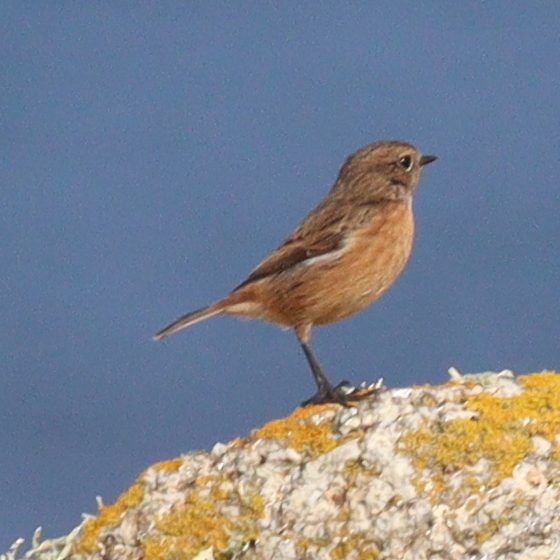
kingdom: Animalia
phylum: Chordata
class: Aves
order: Passeriformes
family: Muscicapidae
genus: Saxicola
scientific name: Saxicola rubicola
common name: European stonechat
